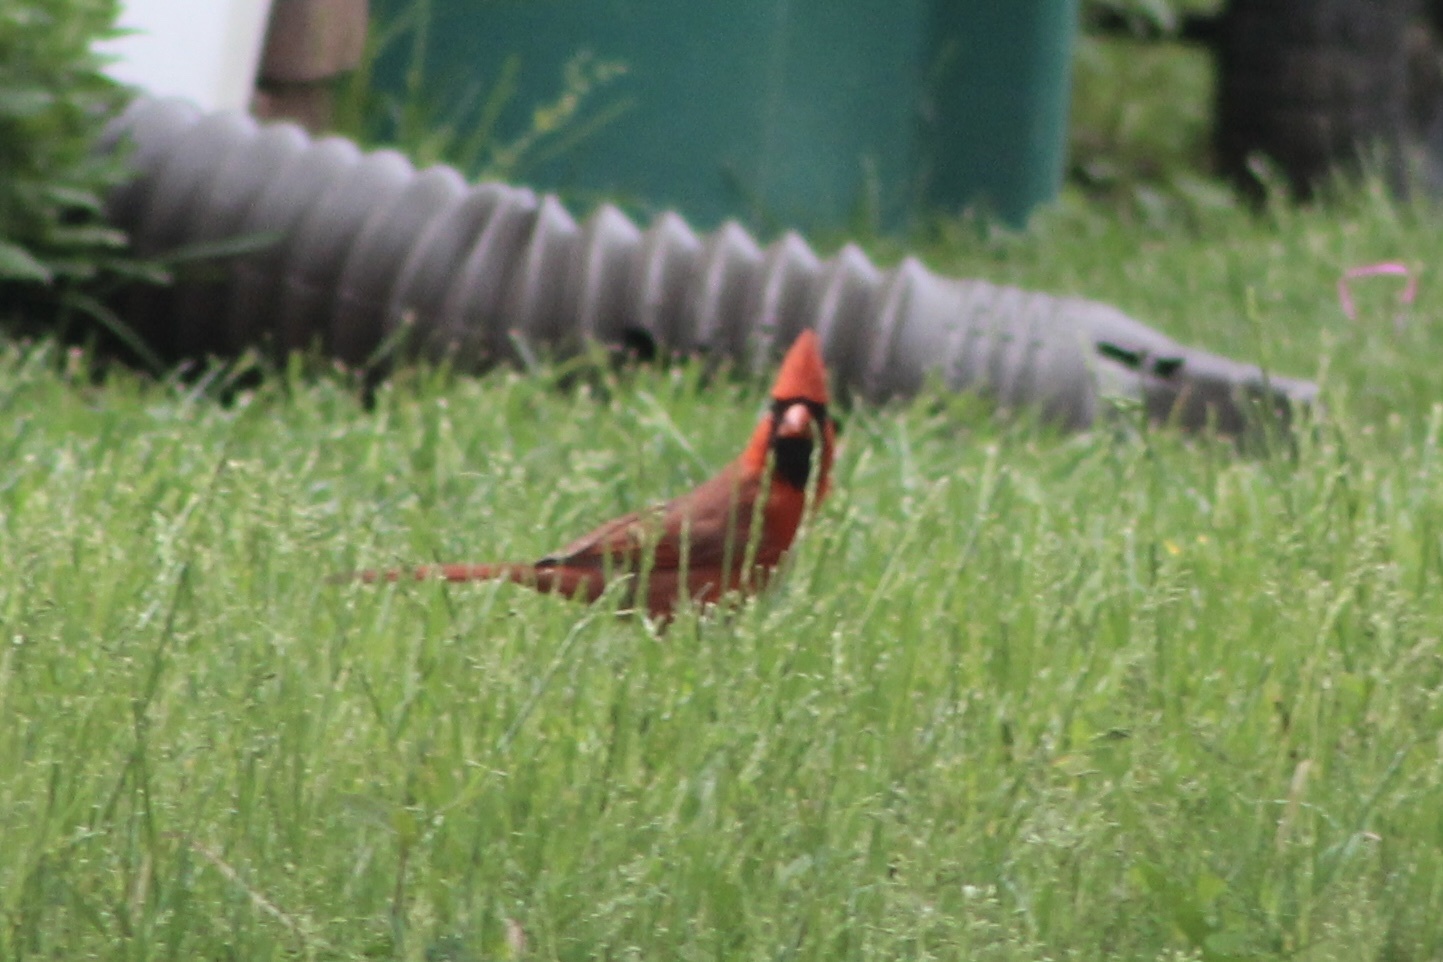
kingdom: Animalia
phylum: Chordata
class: Aves
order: Passeriformes
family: Cardinalidae
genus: Cardinalis
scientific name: Cardinalis cardinalis
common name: Northern cardinal
